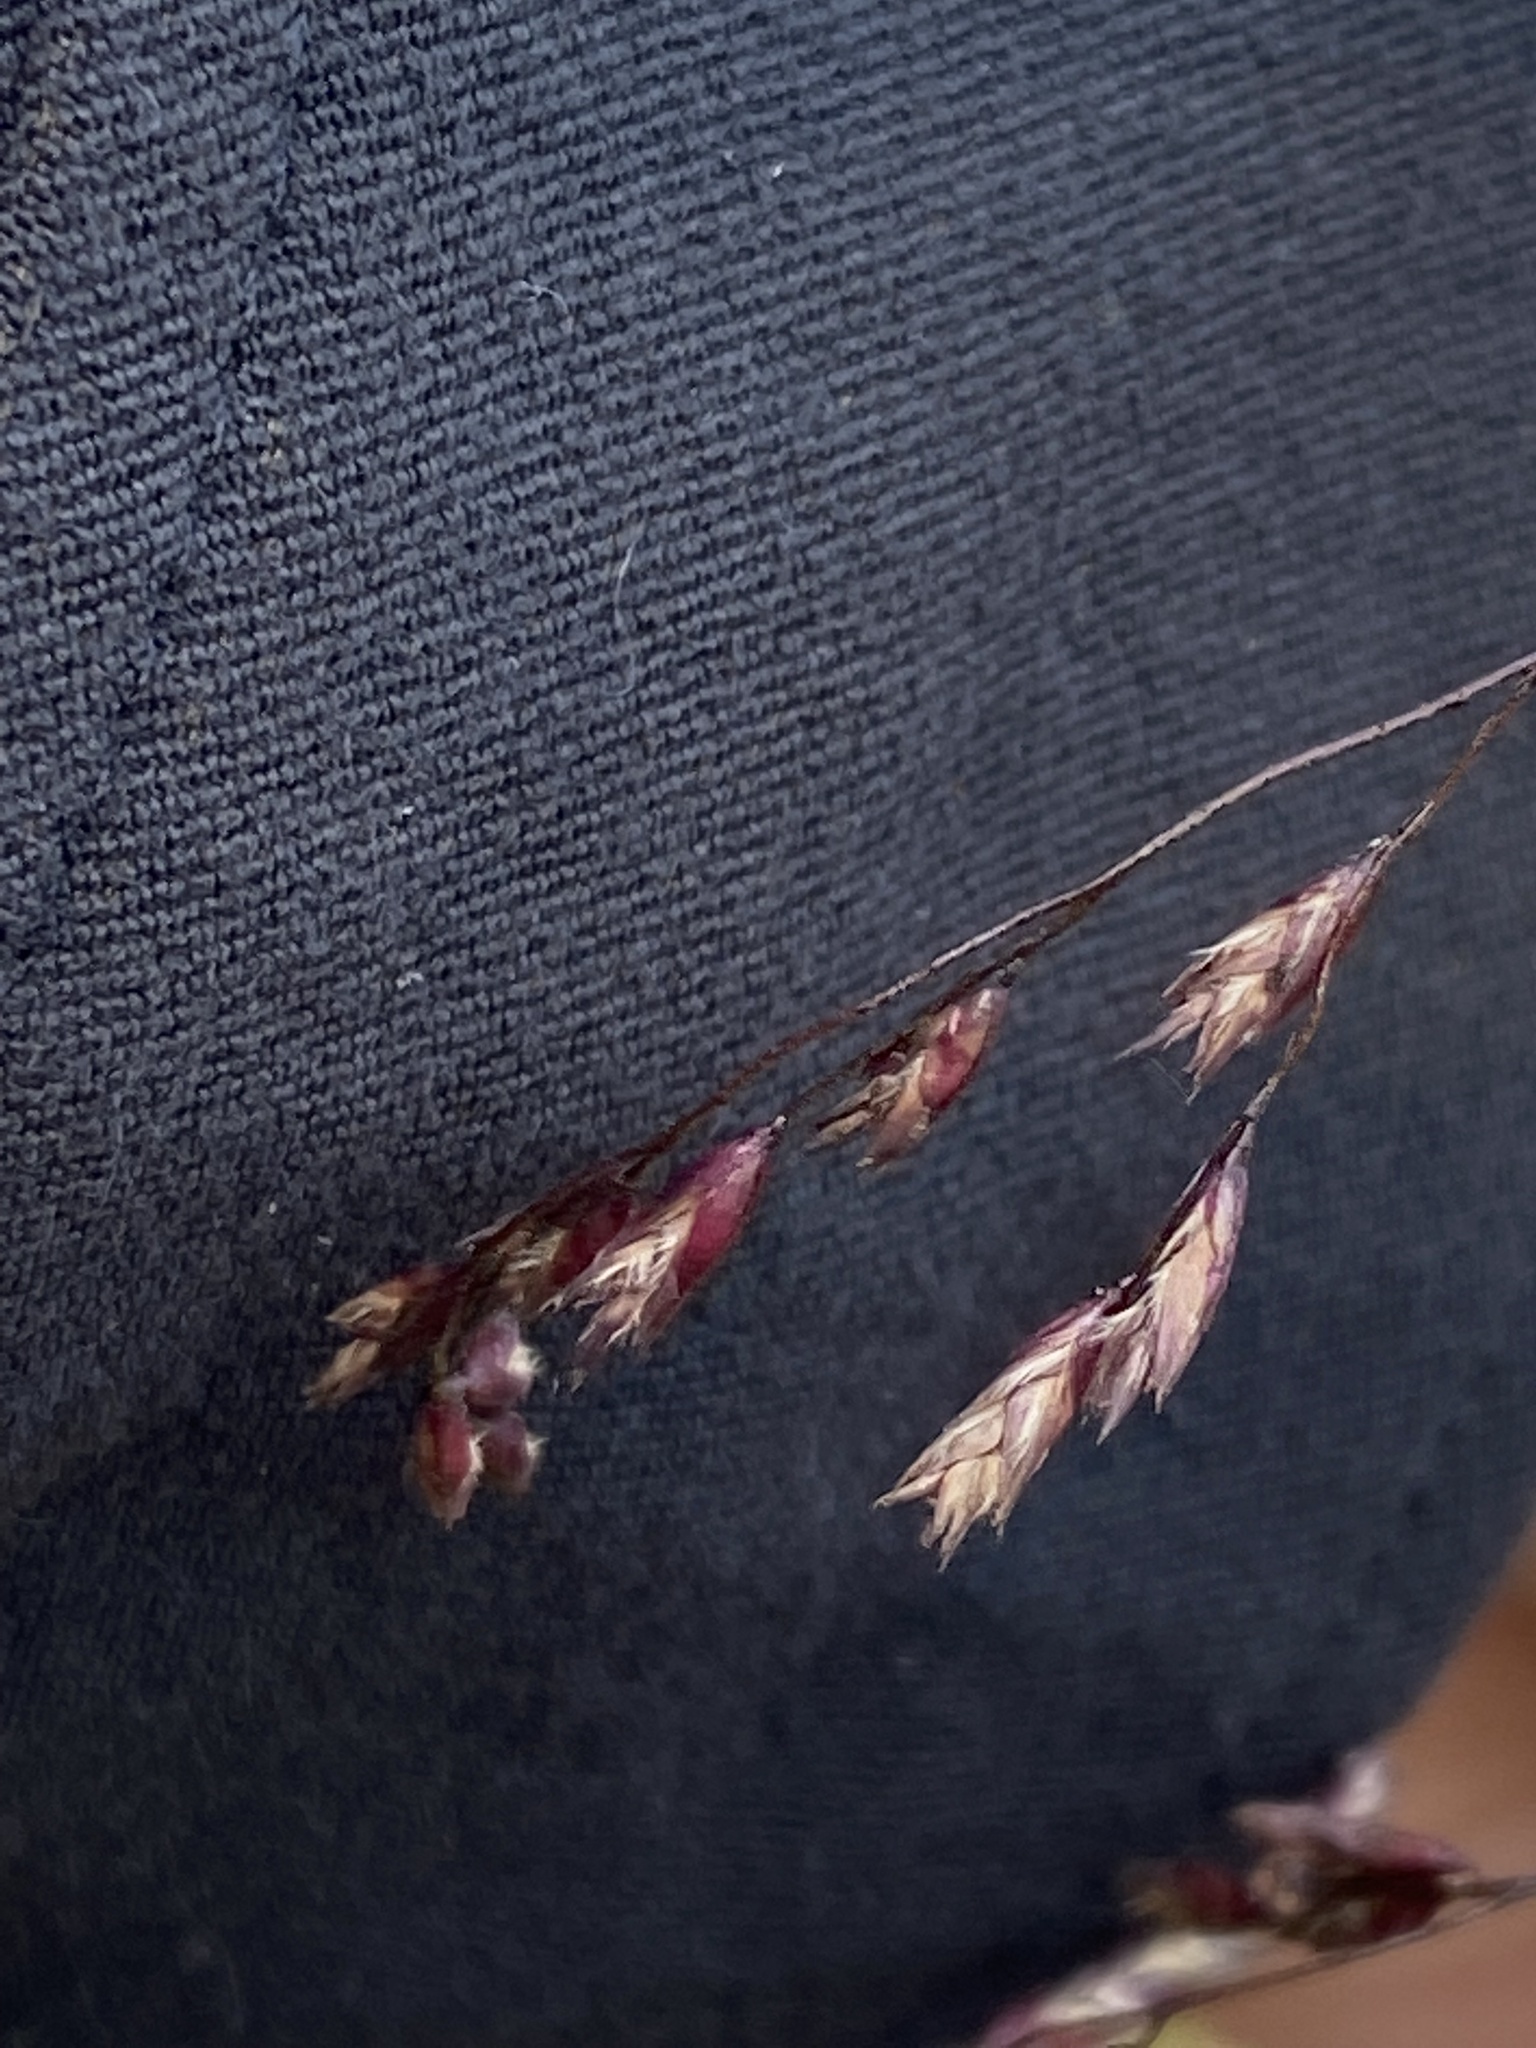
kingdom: Plantae
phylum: Tracheophyta
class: Liliopsida
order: Poales
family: Poaceae
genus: Tridens
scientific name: Tridens flavus
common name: Purpletop
